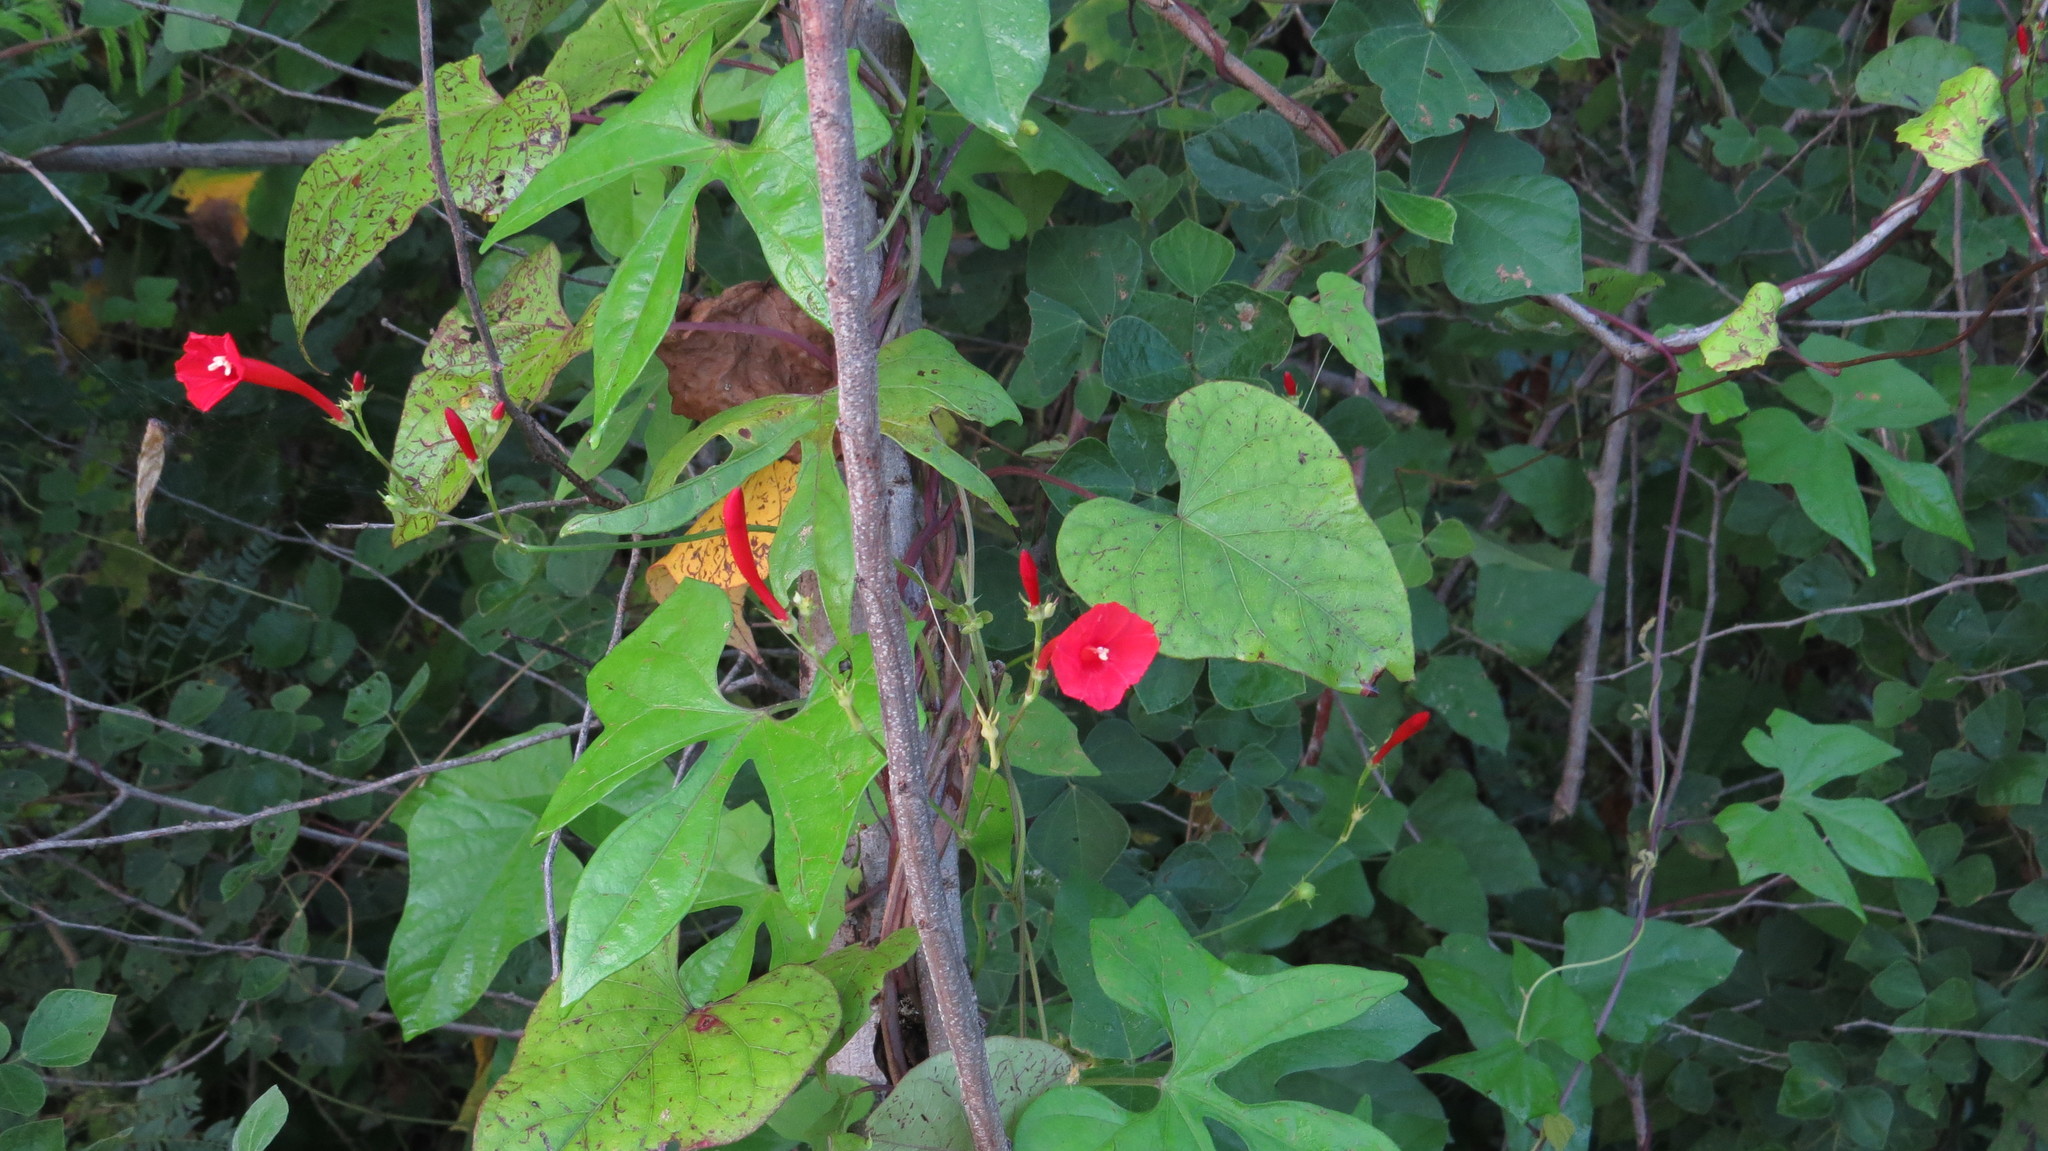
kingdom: Plantae
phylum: Tracheophyta
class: Magnoliopsida
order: Solanales
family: Convolvulaceae
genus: Ipomoea
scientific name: Ipomoea hederifolia
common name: Ivy-leaf morning-glory
